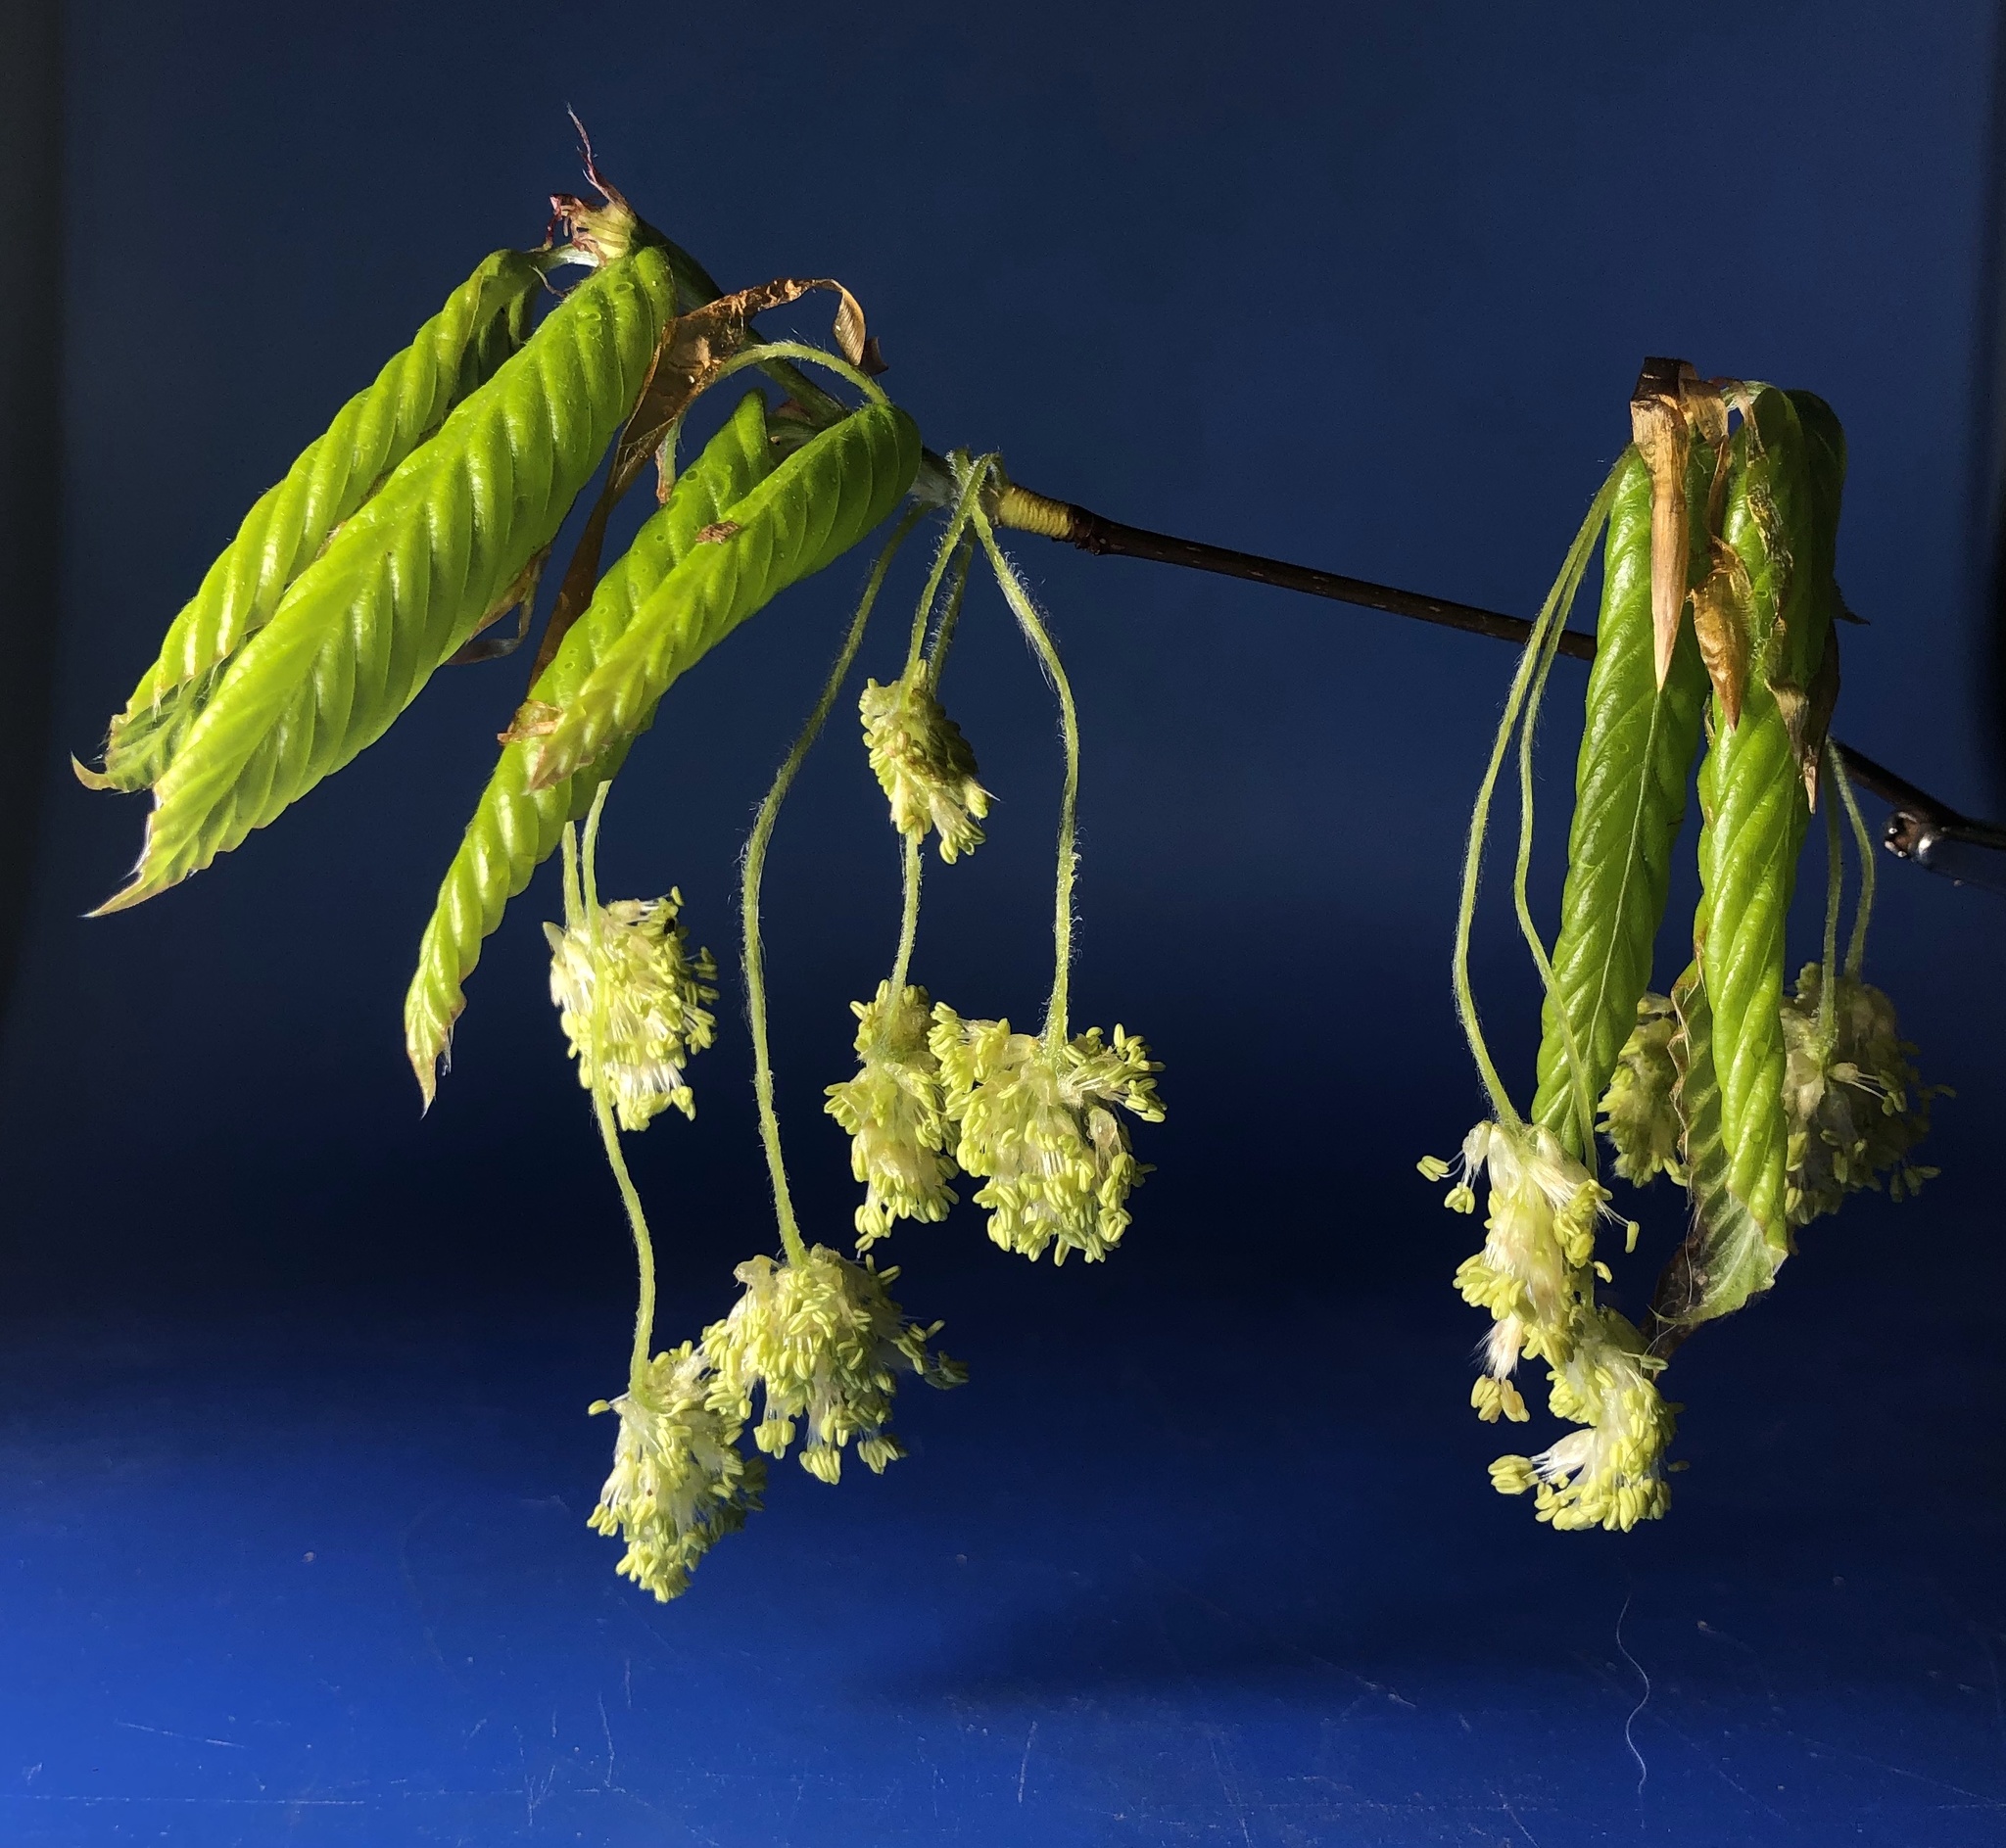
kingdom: Plantae
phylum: Tracheophyta
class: Magnoliopsida
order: Fagales
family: Fagaceae
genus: Fagus
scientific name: Fagus grandifolia
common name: American beech
